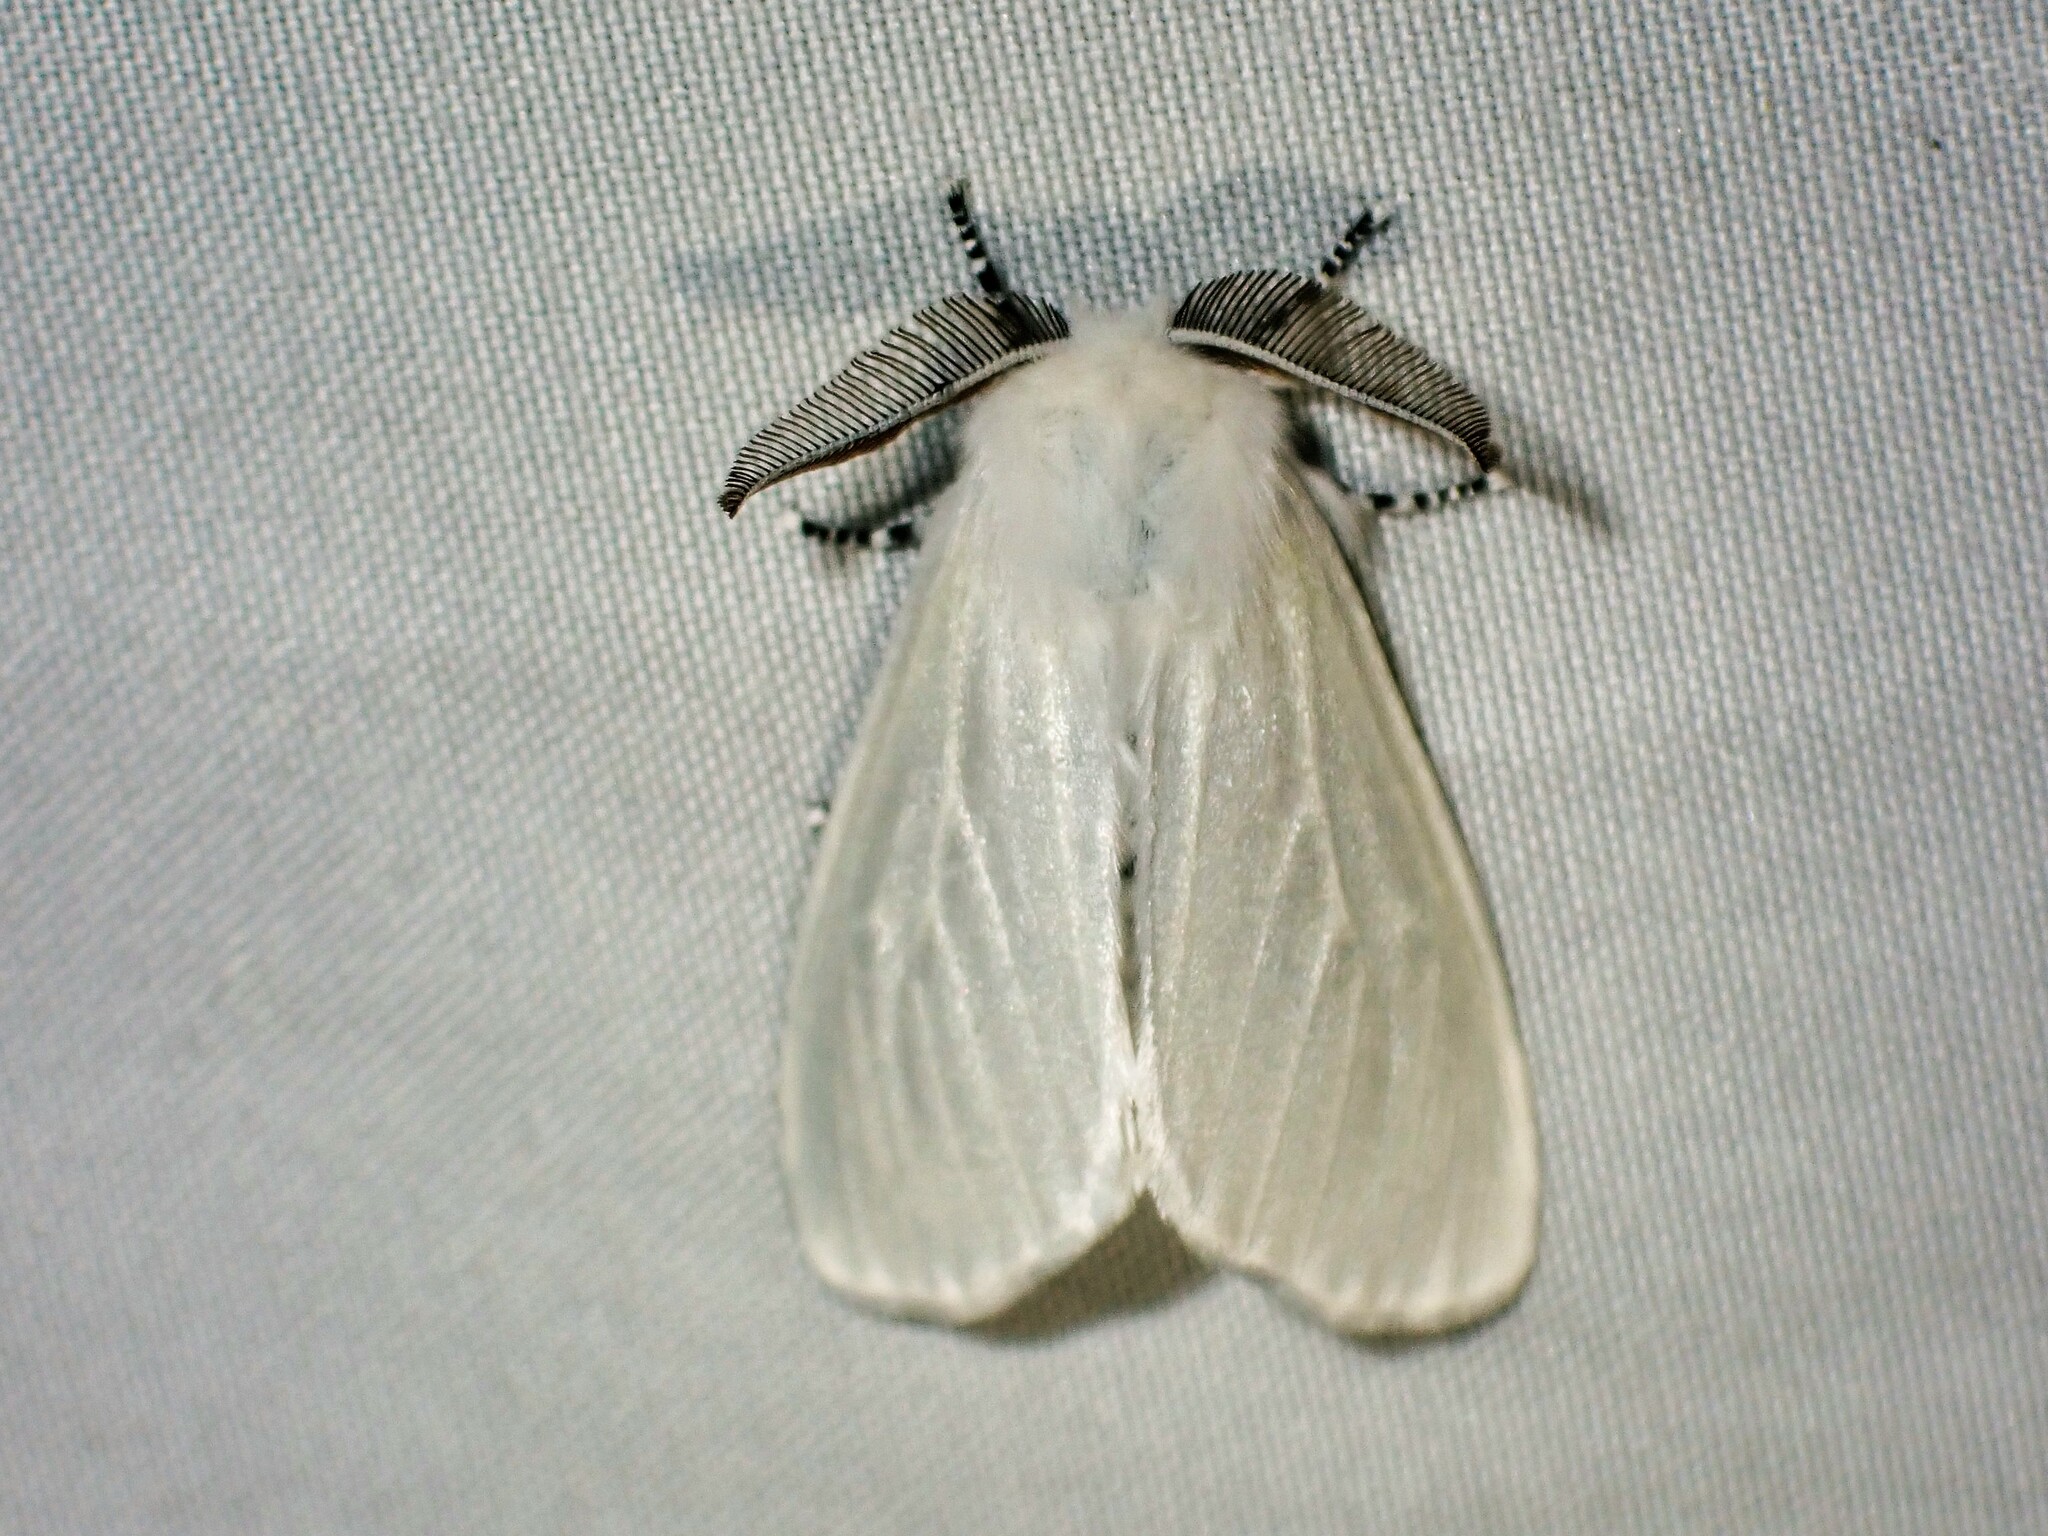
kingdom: Animalia
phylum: Arthropoda
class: Insecta
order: Lepidoptera
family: Erebidae
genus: Leucoma
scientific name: Leucoma salicis
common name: White satin moth
